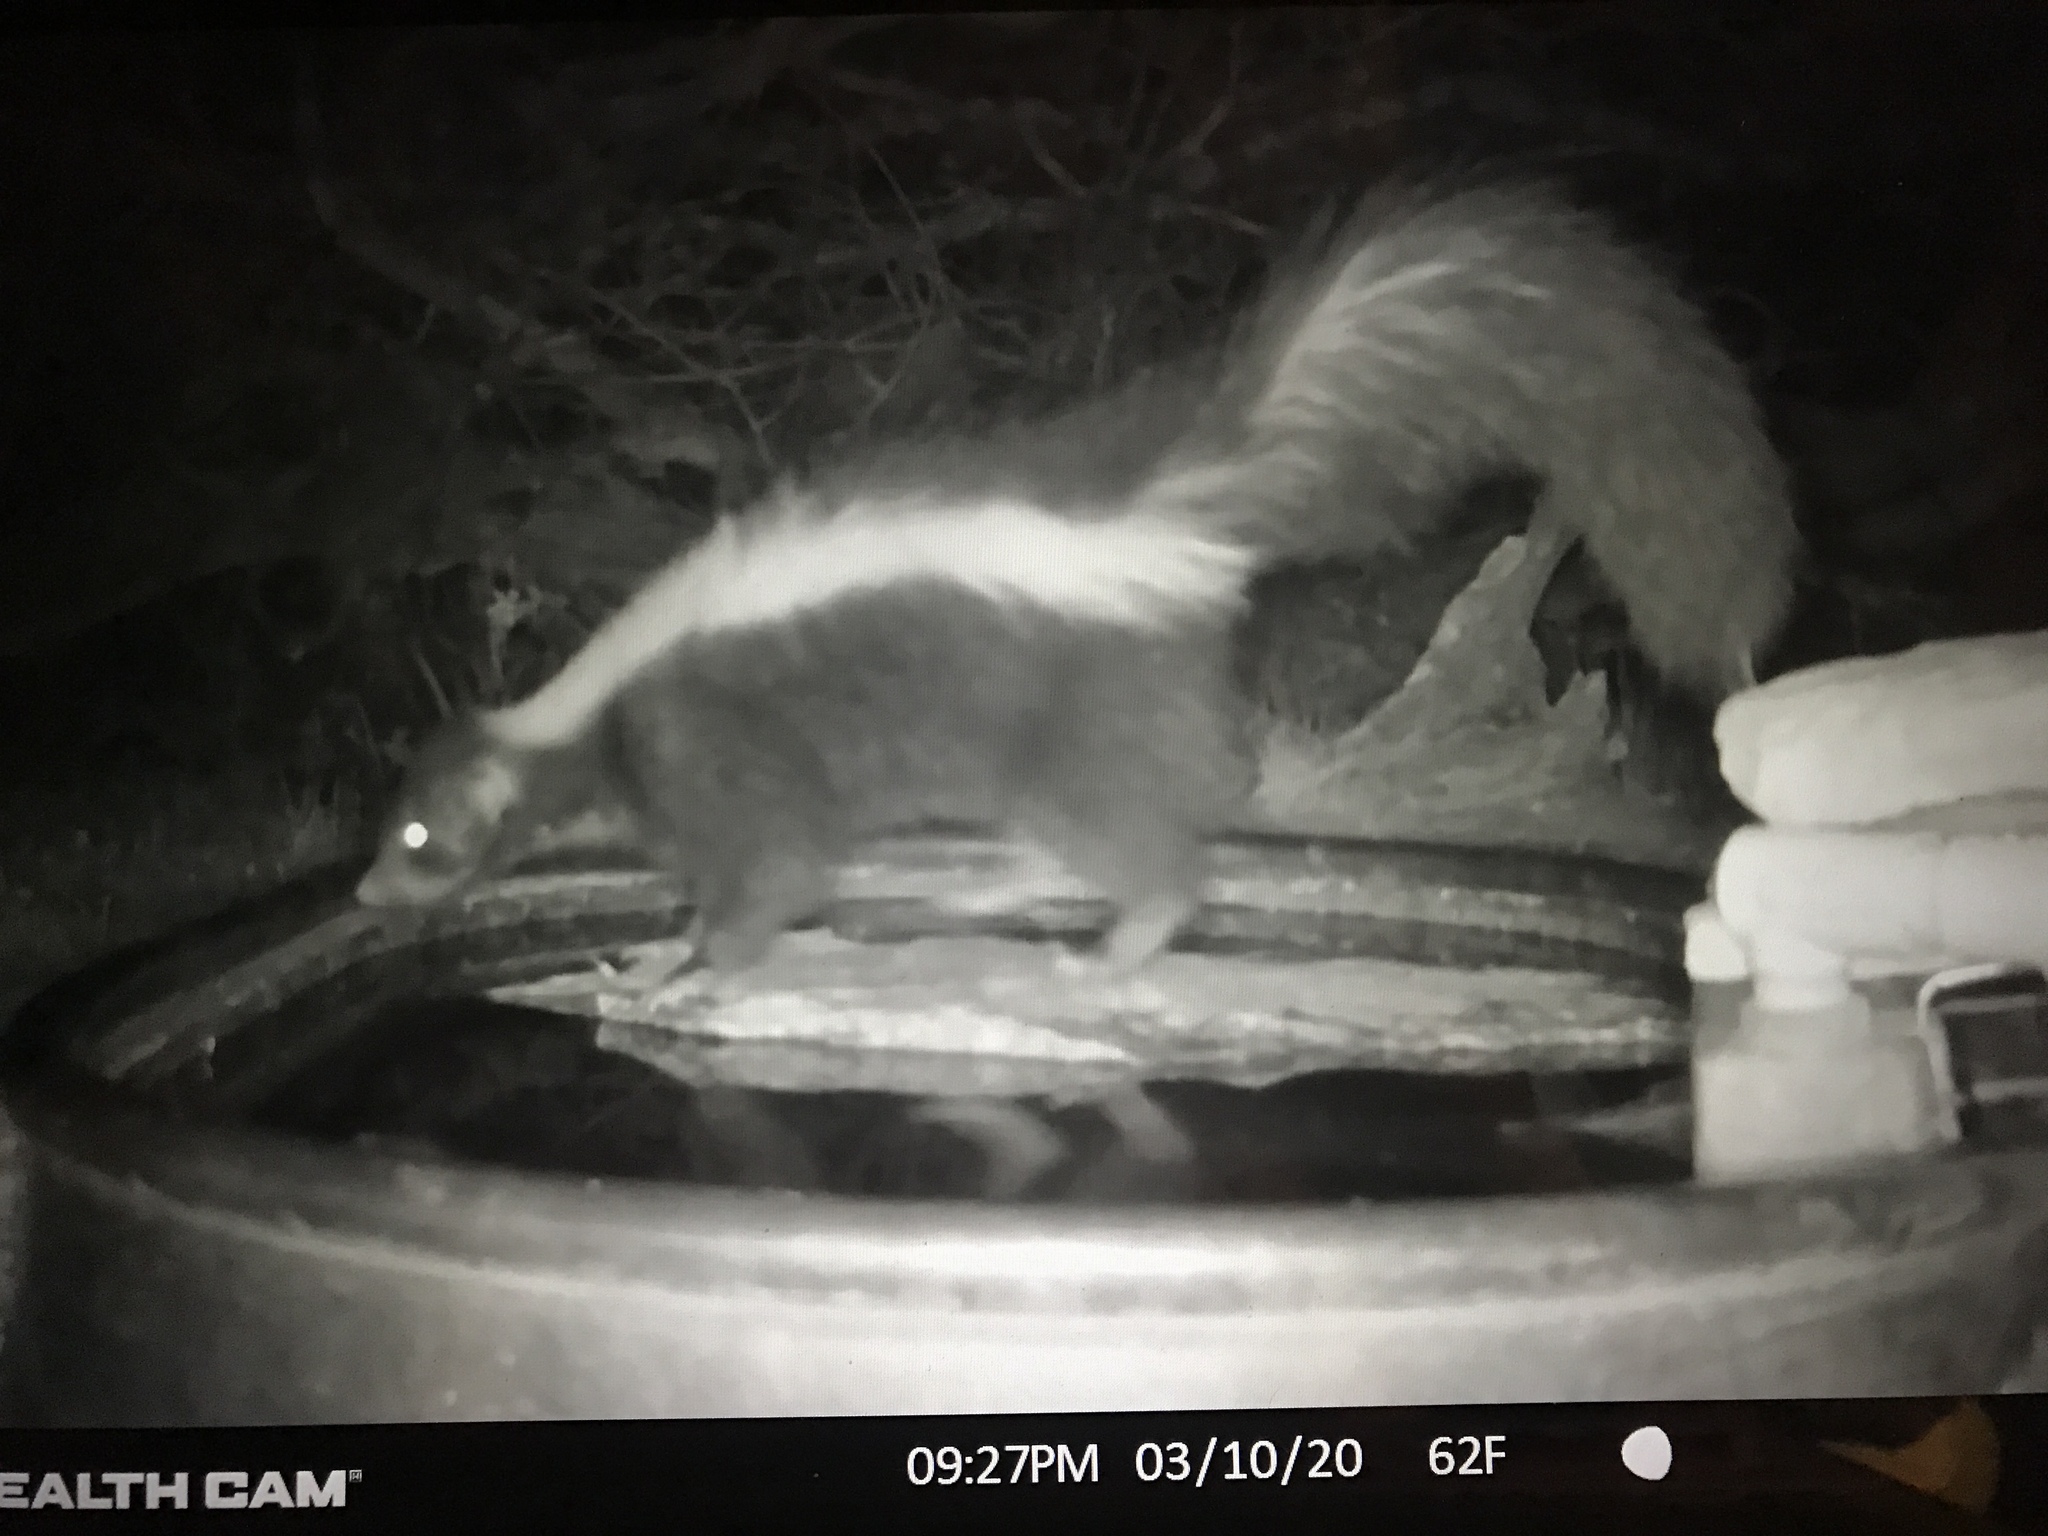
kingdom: Animalia
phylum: Chordata
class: Mammalia
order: Carnivora
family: Mephitidae
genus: Mephitis
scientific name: Mephitis mephitis
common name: Striped skunk
